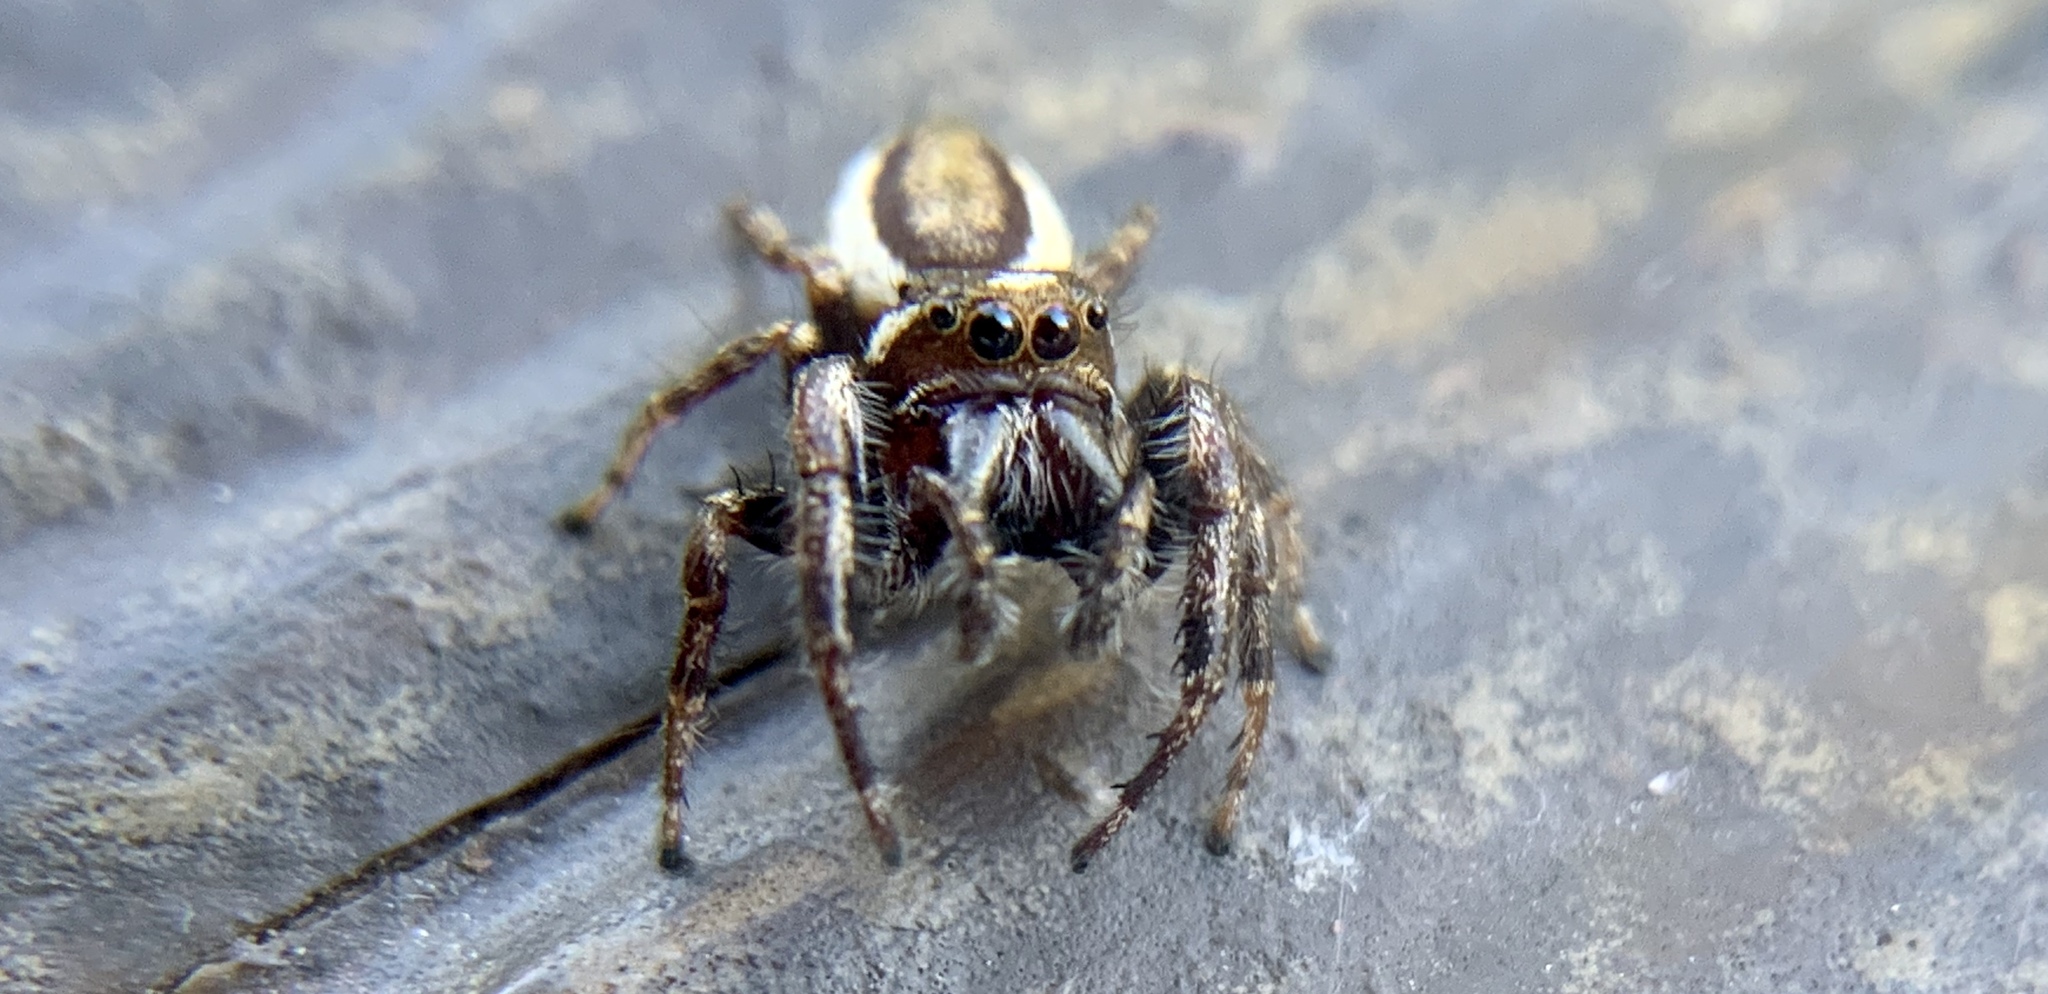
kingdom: Animalia
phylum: Arthropoda
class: Arachnida
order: Araneae
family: Salticidae
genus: Eris
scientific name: Eris militaris
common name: Bronze jumper
